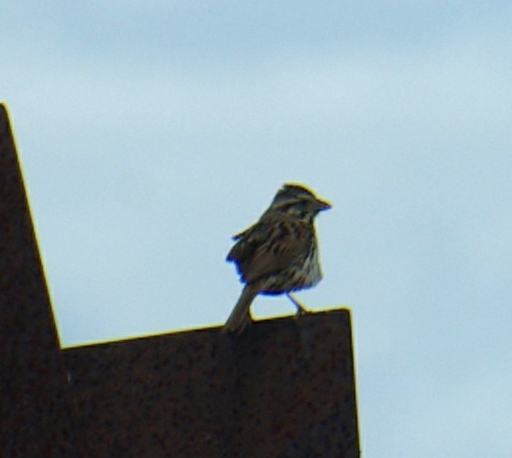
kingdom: Animalia
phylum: Chordata
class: Aves
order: Passeriformes
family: Passerellidae
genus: Melospiza
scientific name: Melospiza melodia
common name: Song sparrow
